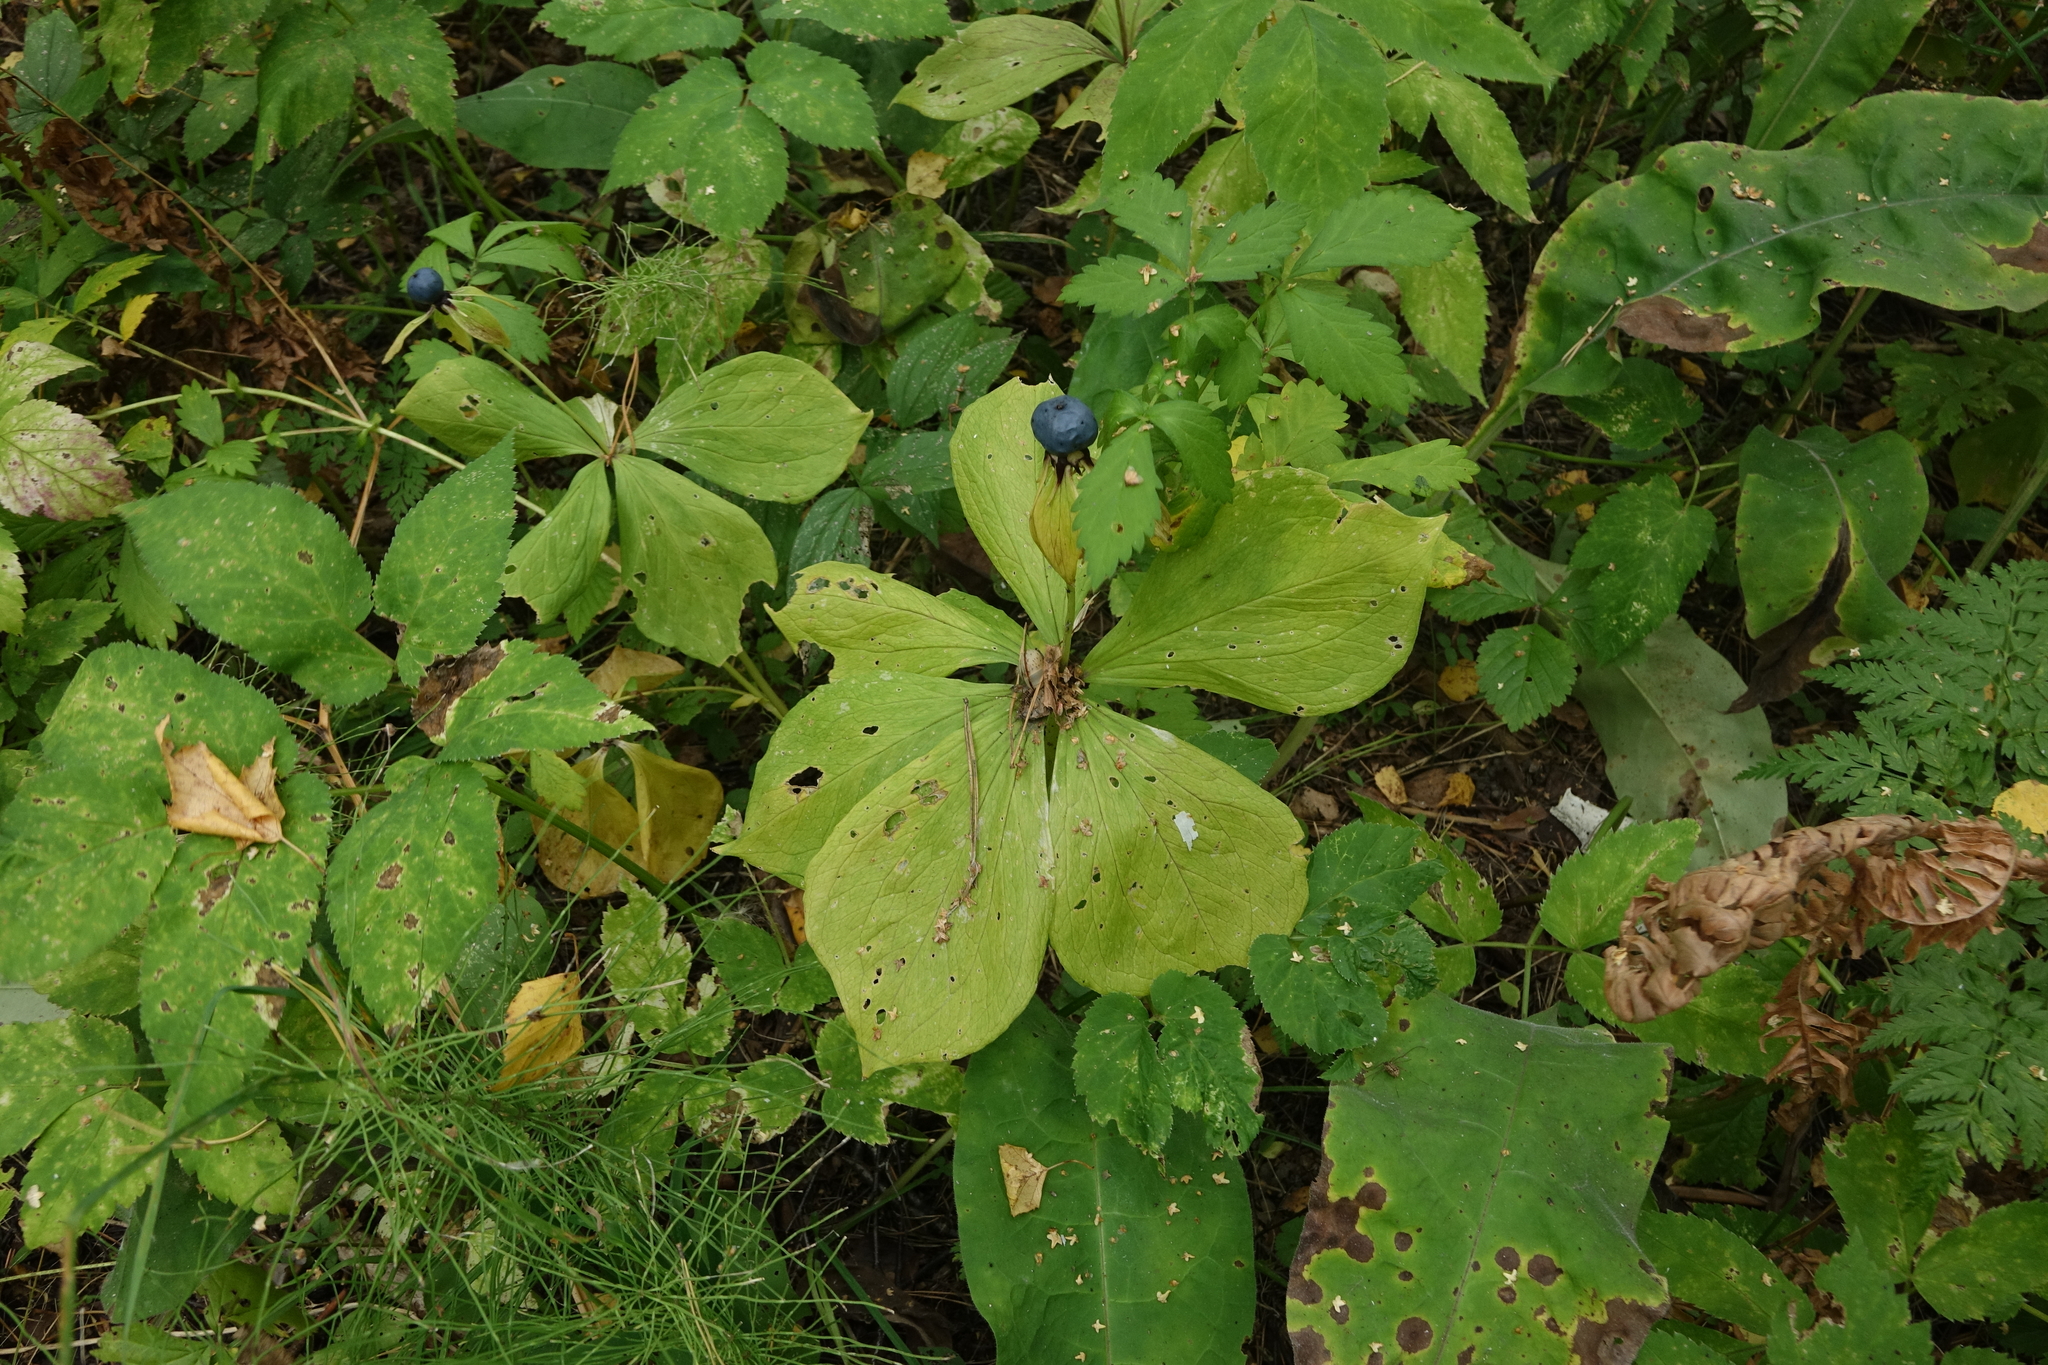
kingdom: Plantae
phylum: Tracheophyta
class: Liliopsida
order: Liliales
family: Melanthiaceae
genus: Paris
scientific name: Paris quadrifolia
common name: Herb-paris
